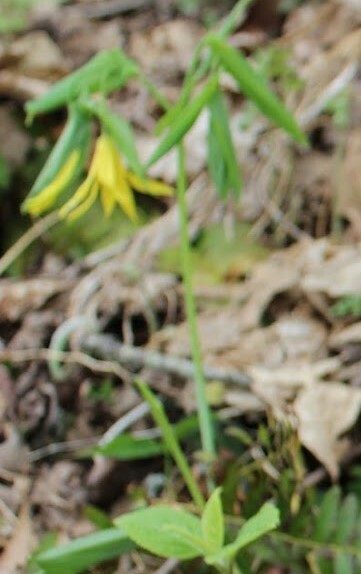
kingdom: Plantae
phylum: Tracheophyta
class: Liliopsida
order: Liliales
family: Colchicaceae
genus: Uvularia
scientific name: Uvularia grandiflora
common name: Bellwort
